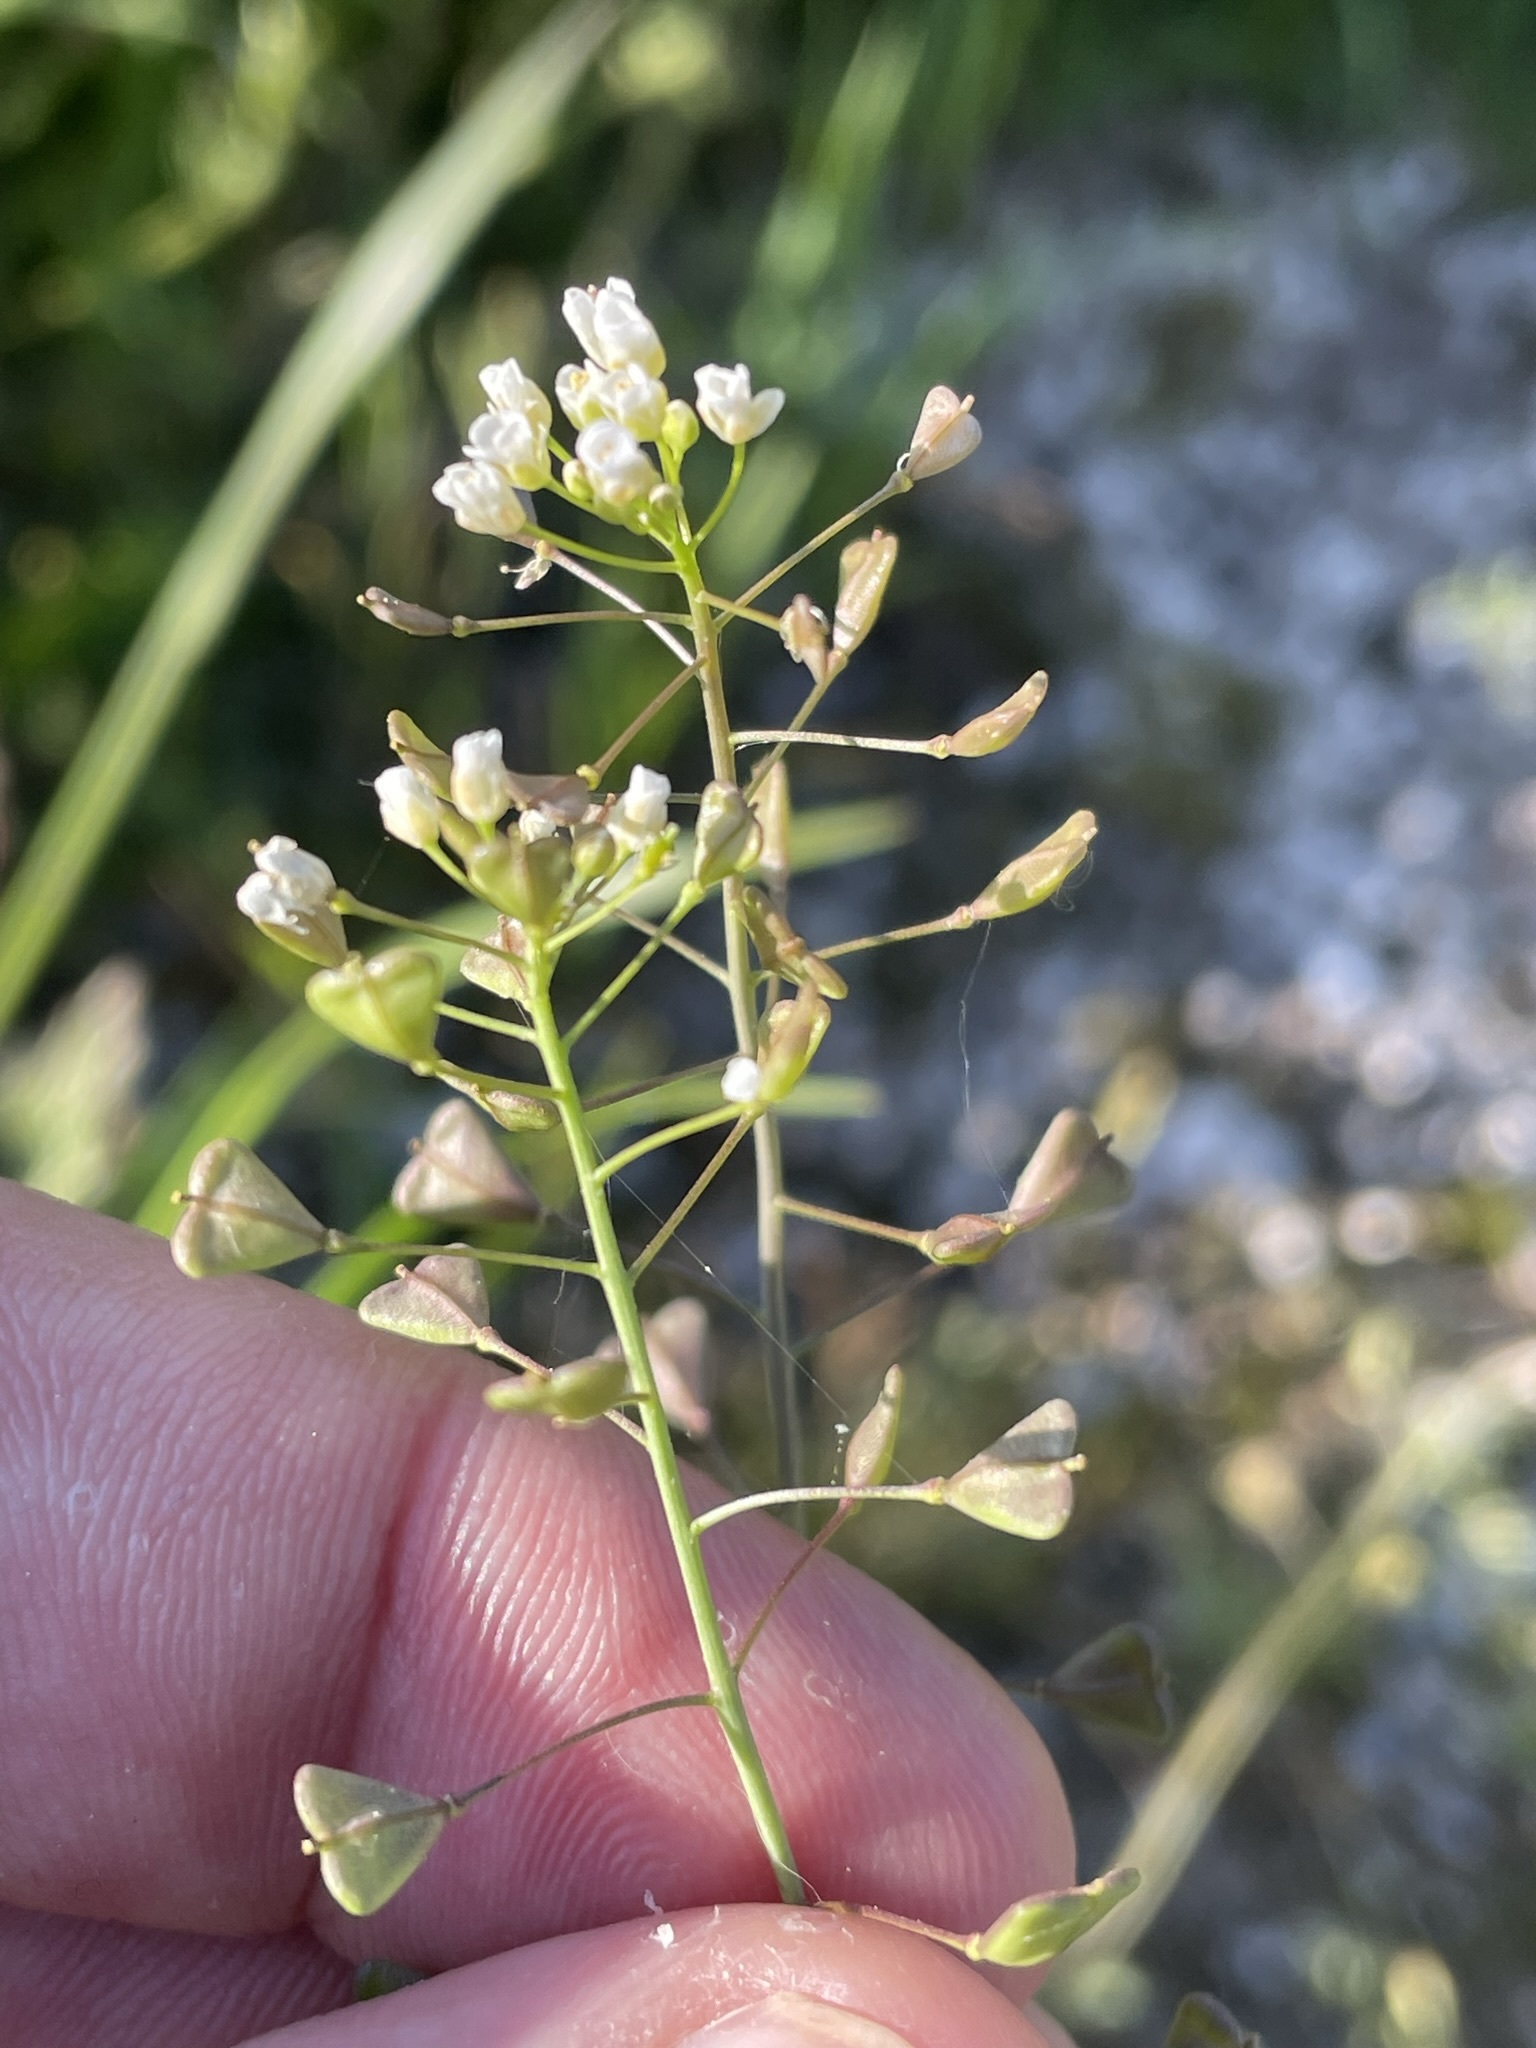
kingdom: Plantae
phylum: Tracheophyta
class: Magnoliopsida
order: Brassicales
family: Brassicaceae
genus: Capsella
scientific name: Capsella bursa-pastoris
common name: Shepherd's purse
